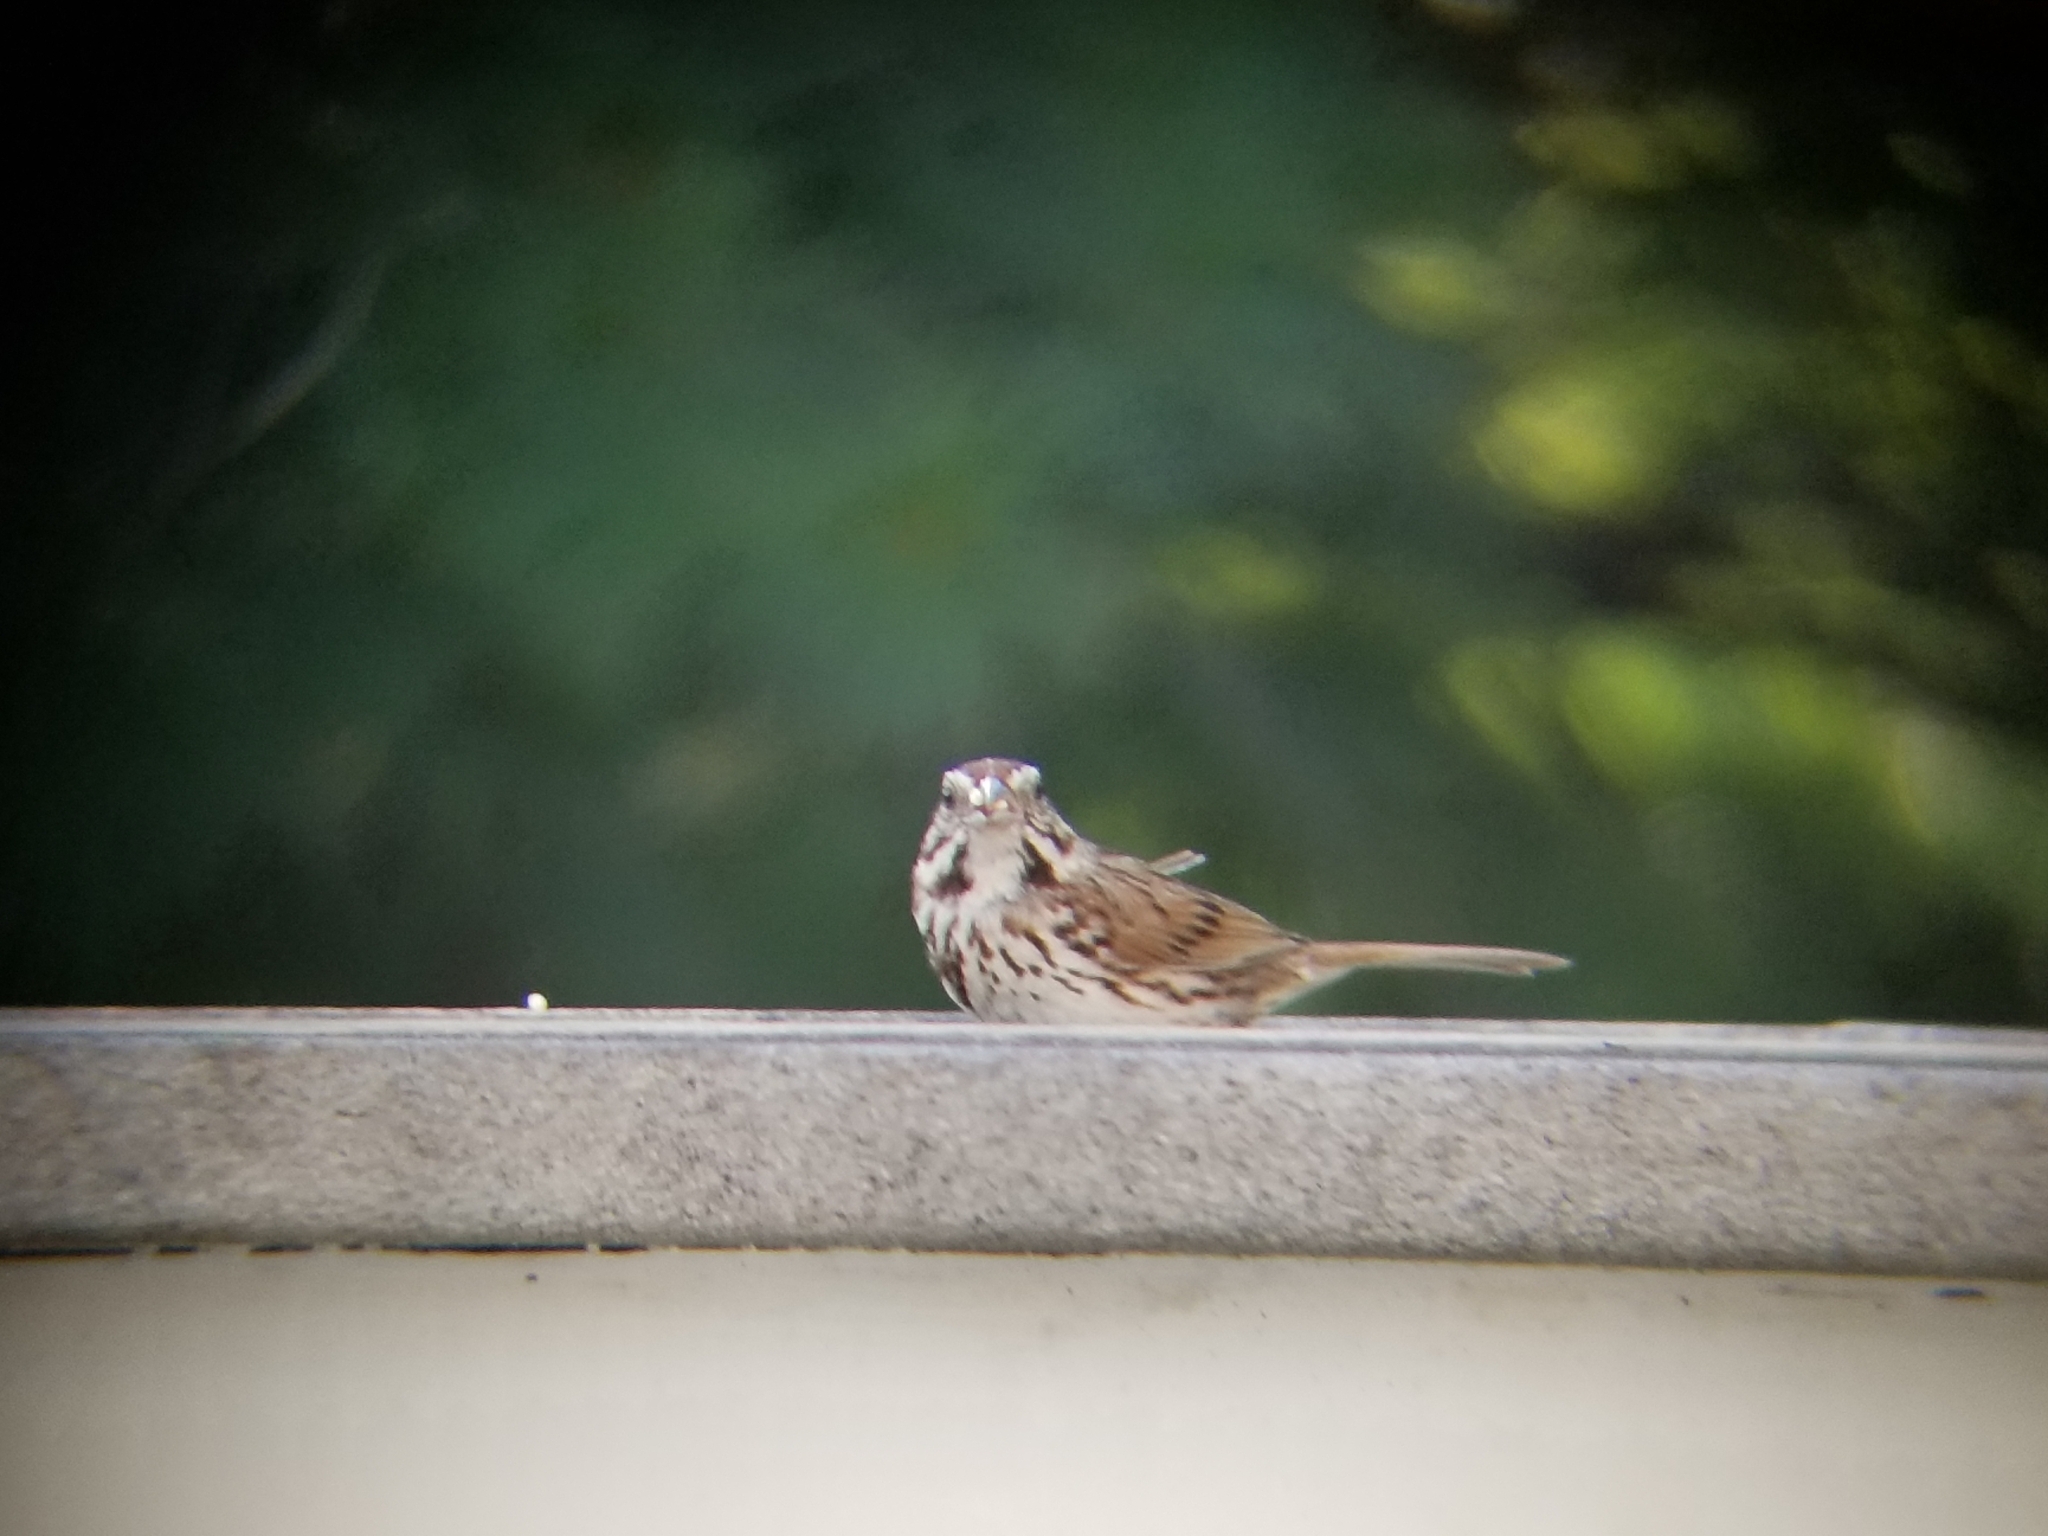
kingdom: Animalia
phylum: Chordata
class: Aves
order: Passeriformes
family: Passerellidae
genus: Melospiza
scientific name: Melospiza melodia
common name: Song sparrow
